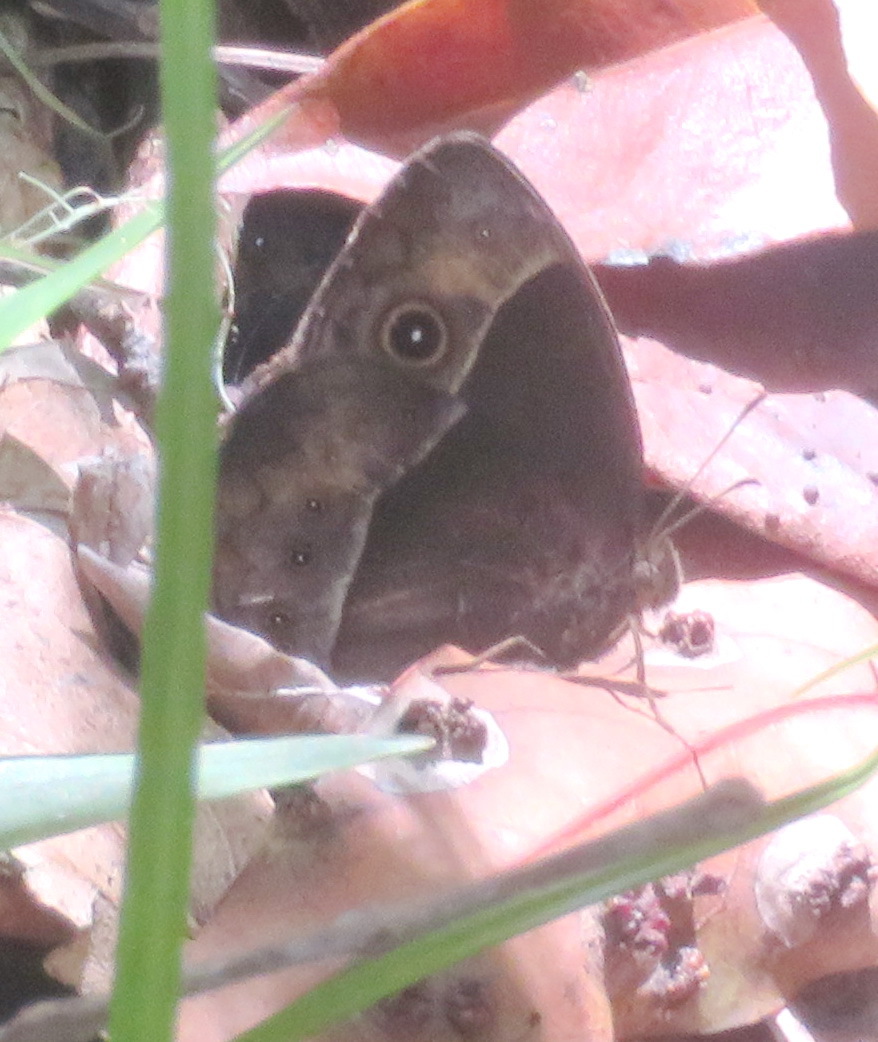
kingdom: Animalia
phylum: Arthropoda
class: Insecta
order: Lepidoptera
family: Nymphalidae
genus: Mycalesis
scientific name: Mycalesis rhacotis
